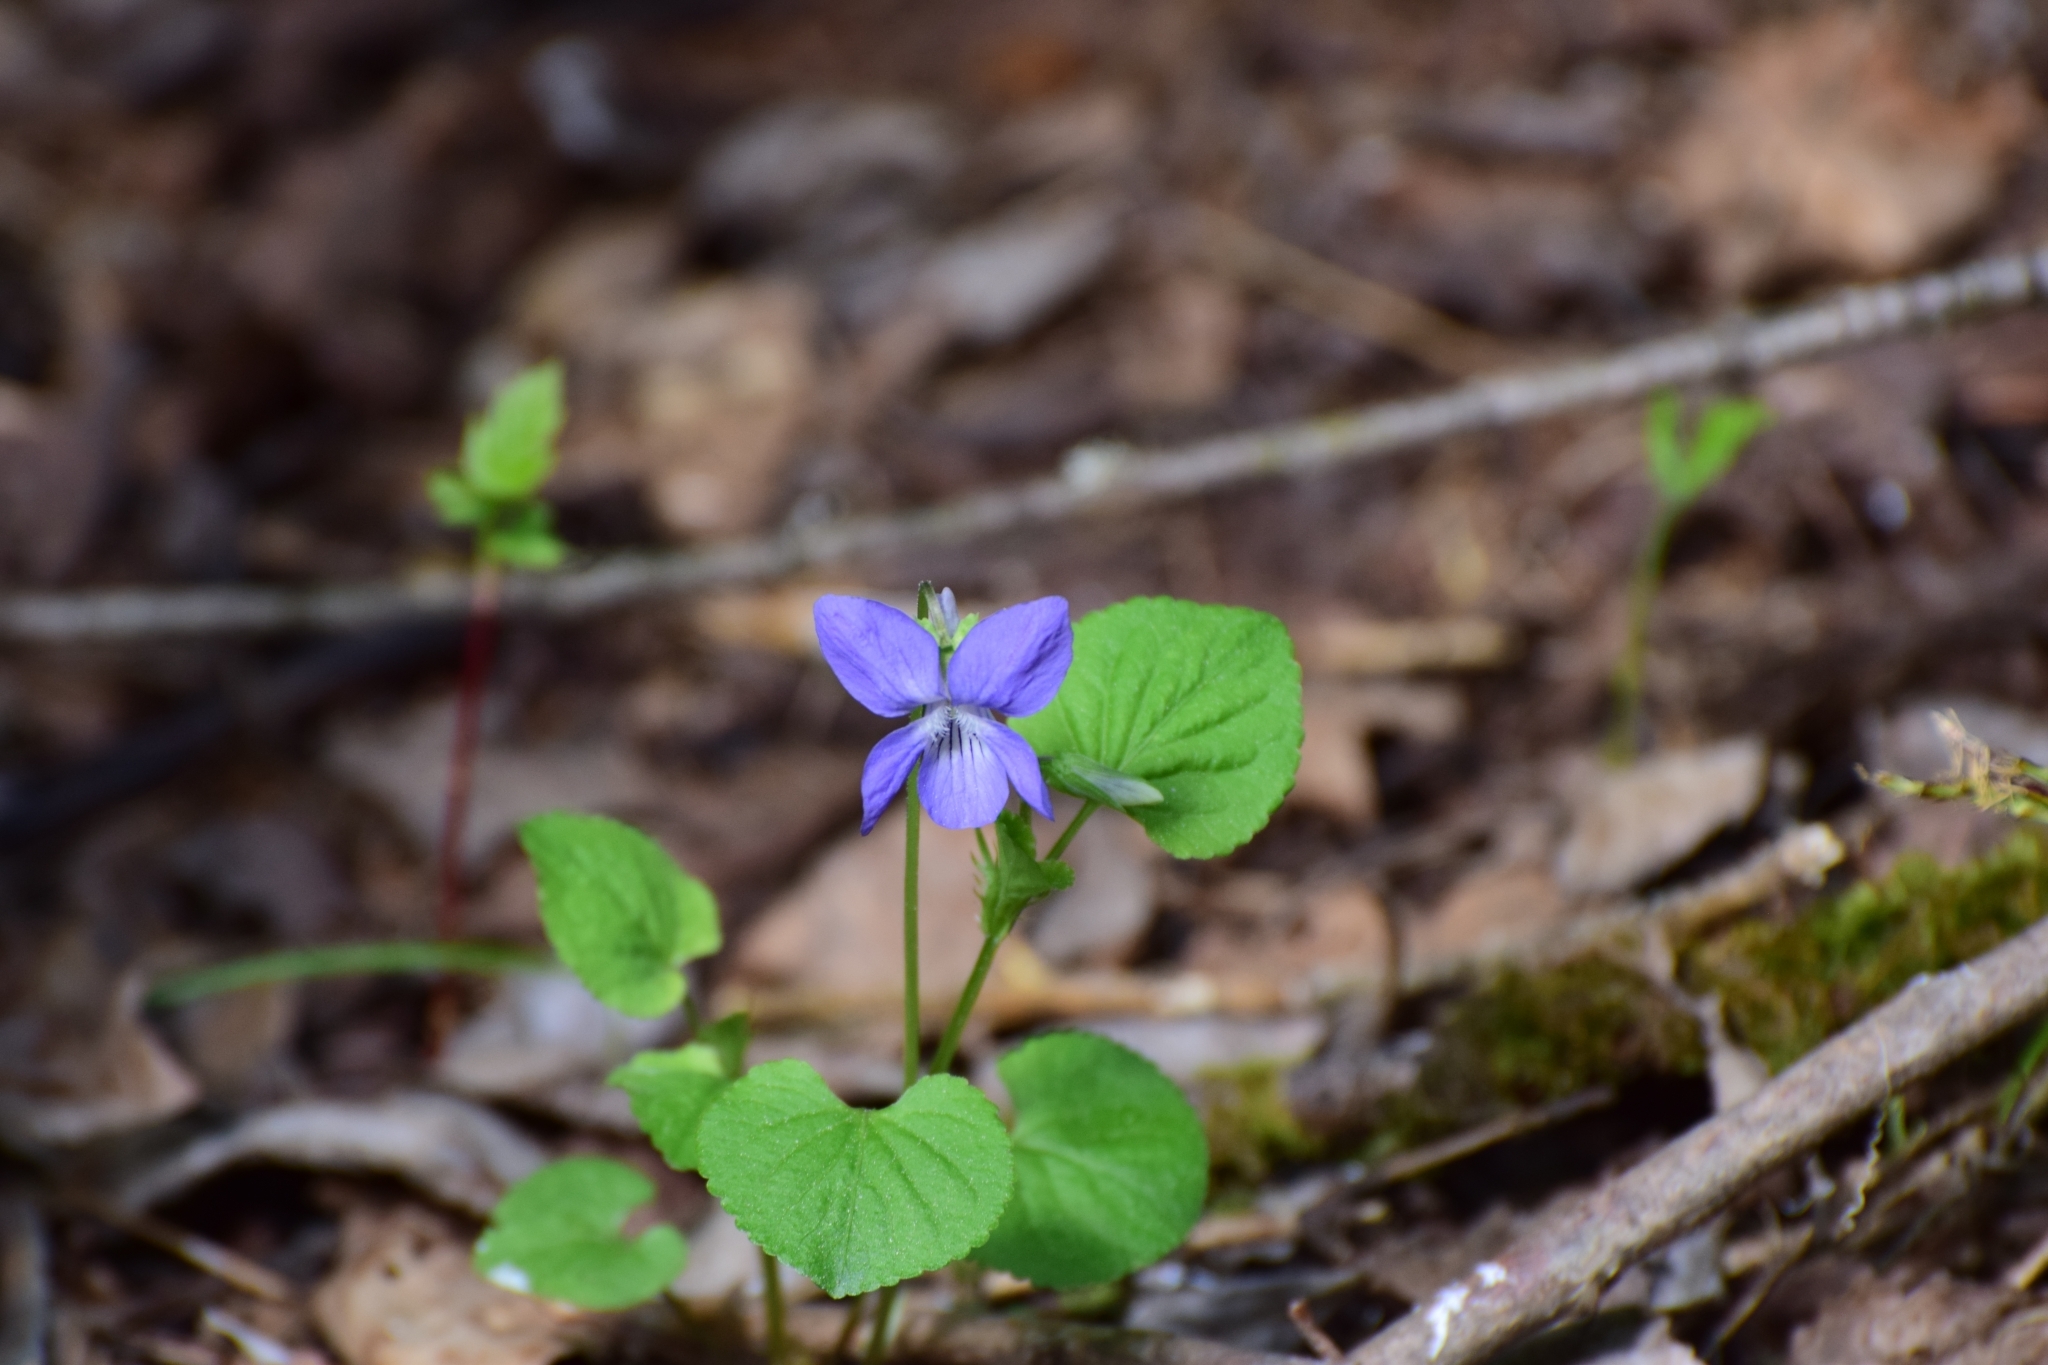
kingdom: Plantae
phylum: Tracheophyta
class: Magnoliopsida
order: Malpighiales
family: Violaceae
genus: Viola
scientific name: Viola riviniana
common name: Common dog-violet
